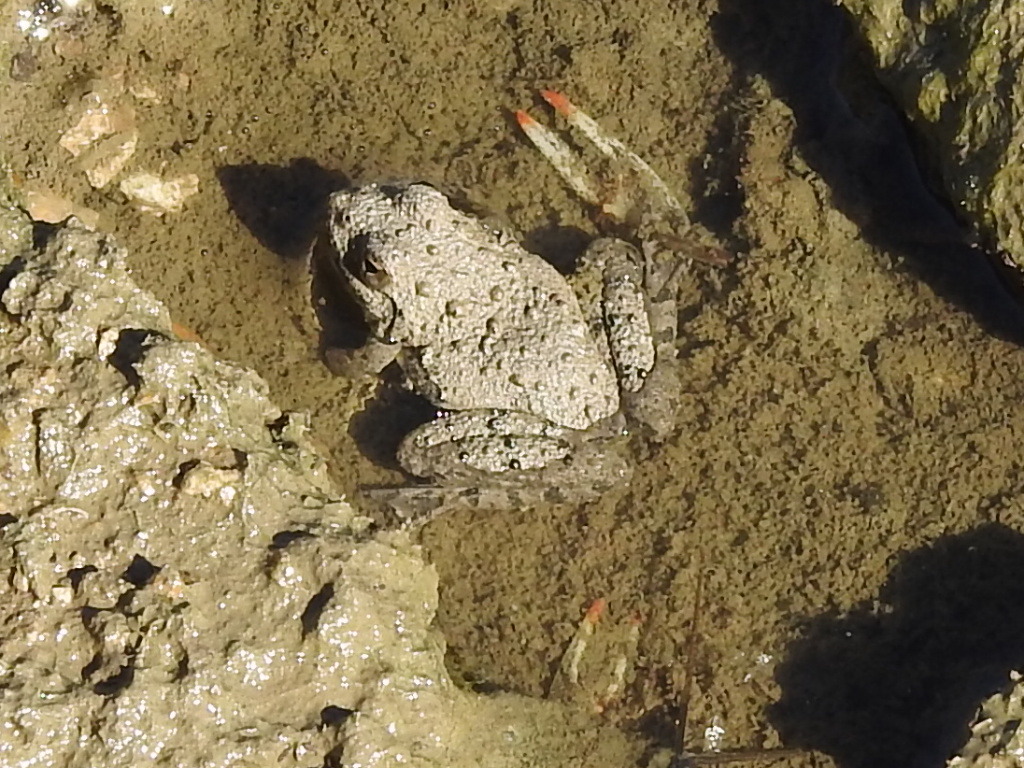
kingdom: Animalia
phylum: Chordata
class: Amphibia
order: Anura
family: Hylidae
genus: Acris
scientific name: Acris blanchardi
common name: Blanchard's cricket frog
